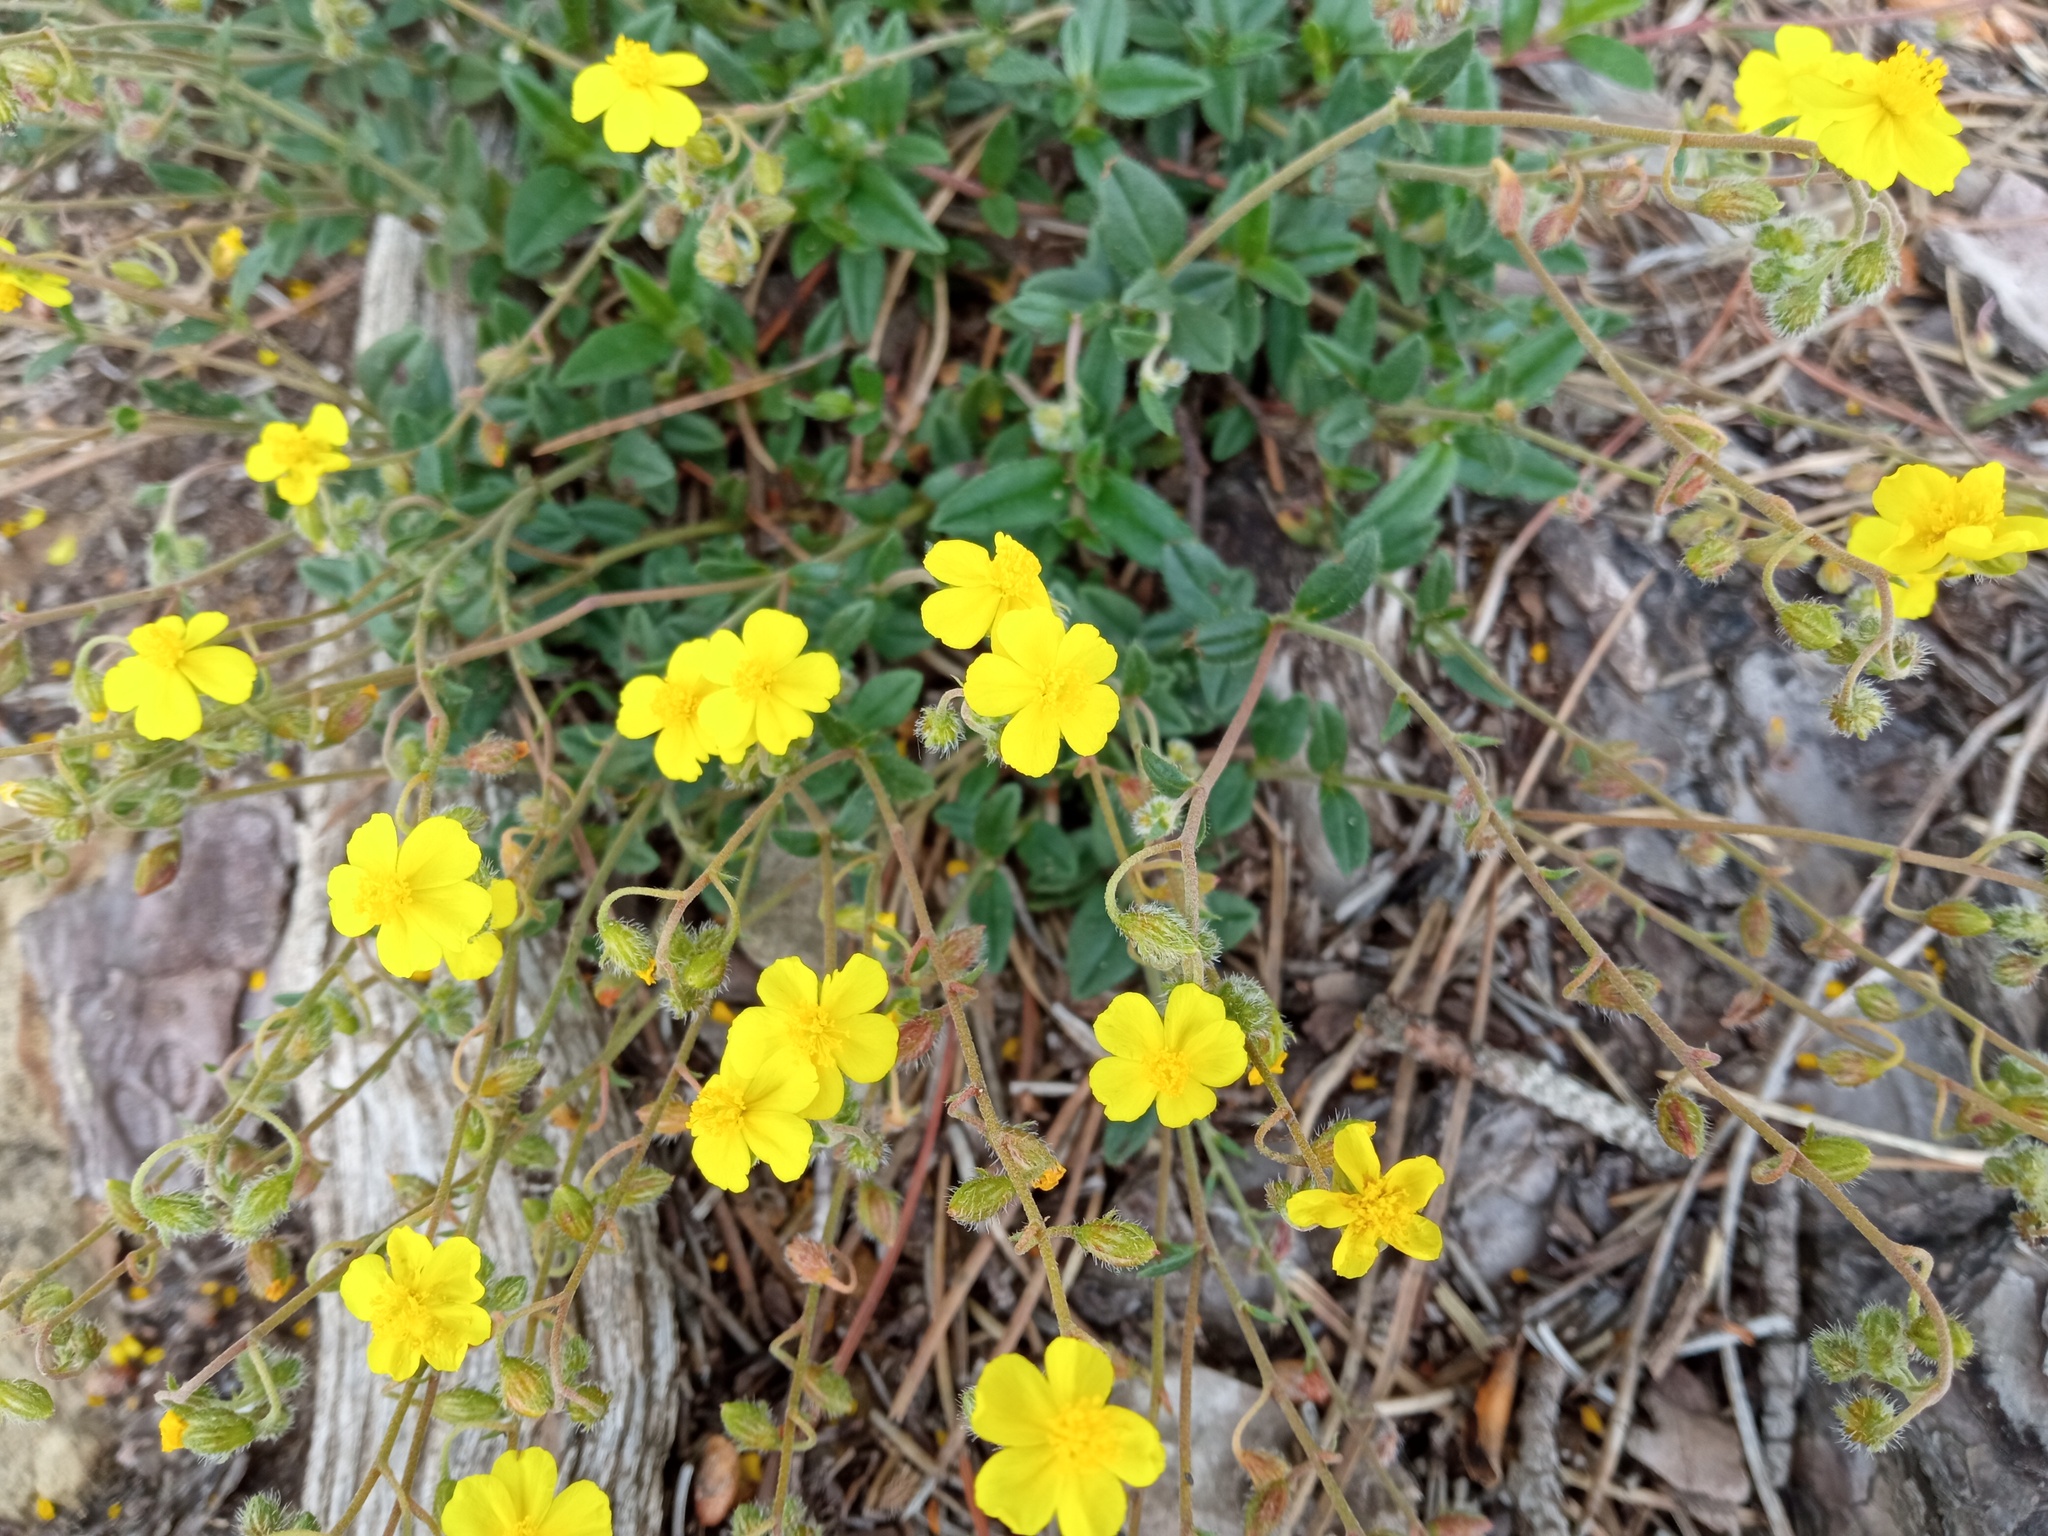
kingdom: Plantae
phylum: Tracheophyta
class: Magnoliopsida
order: Malvales
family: Cistaceae
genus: Helianthemum
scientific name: Helianthemum oelandicum
